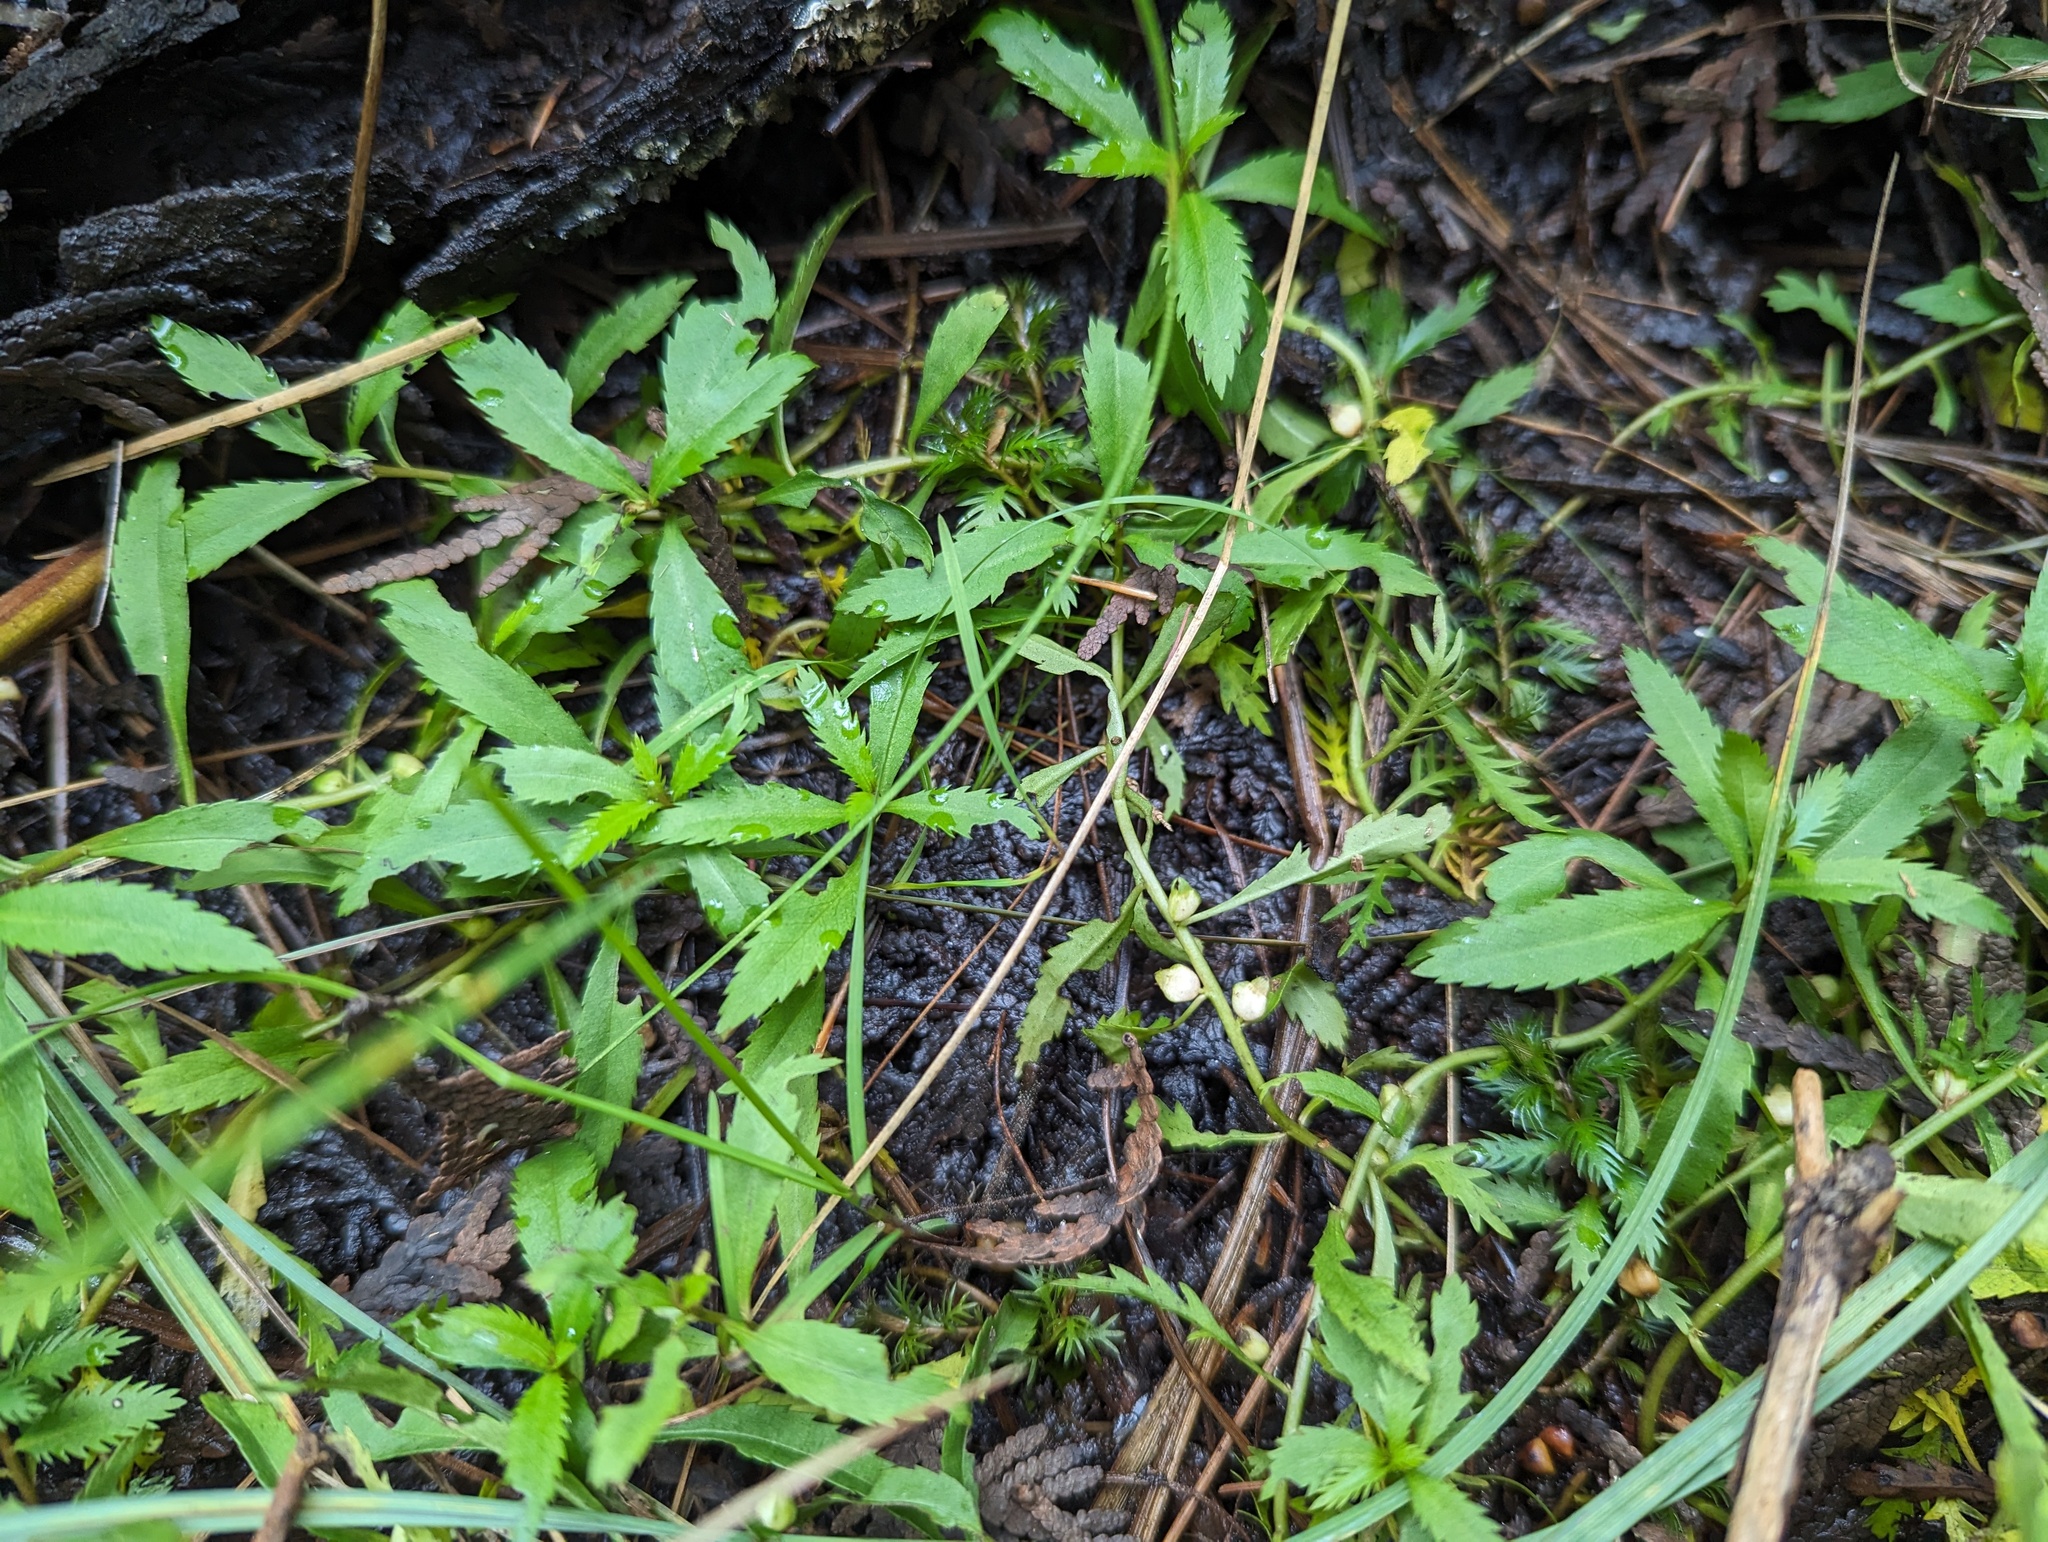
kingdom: Plantae
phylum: Tracheophyta
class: Magnoliopsida
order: Saxifragales
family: Haloragaceae
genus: Proserpinaca
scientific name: Proserpinaca palustris
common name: Marsh mermaidweed
